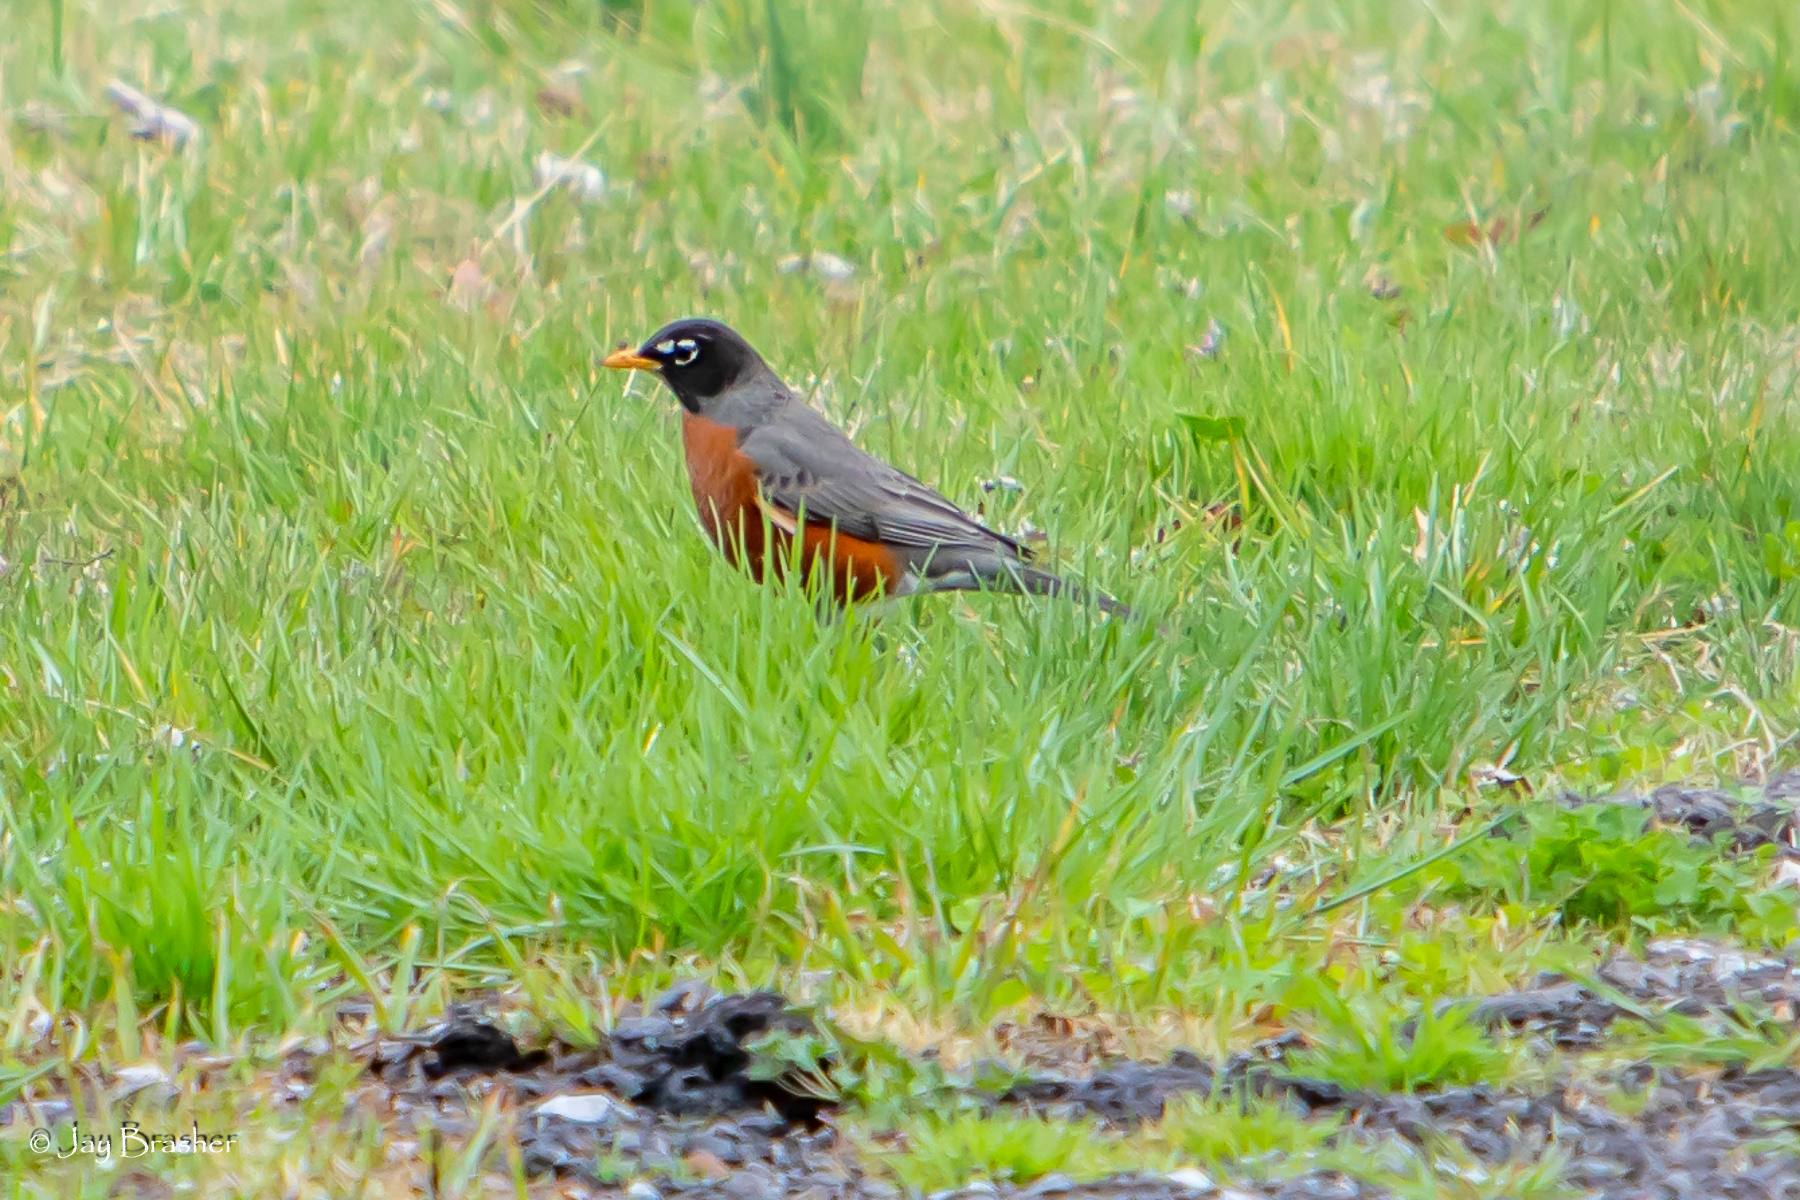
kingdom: Animalia
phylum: Chordata
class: Aves
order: Passeriformes
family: Turdidae
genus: Turdus
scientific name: Turdus migratorius
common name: American robin
